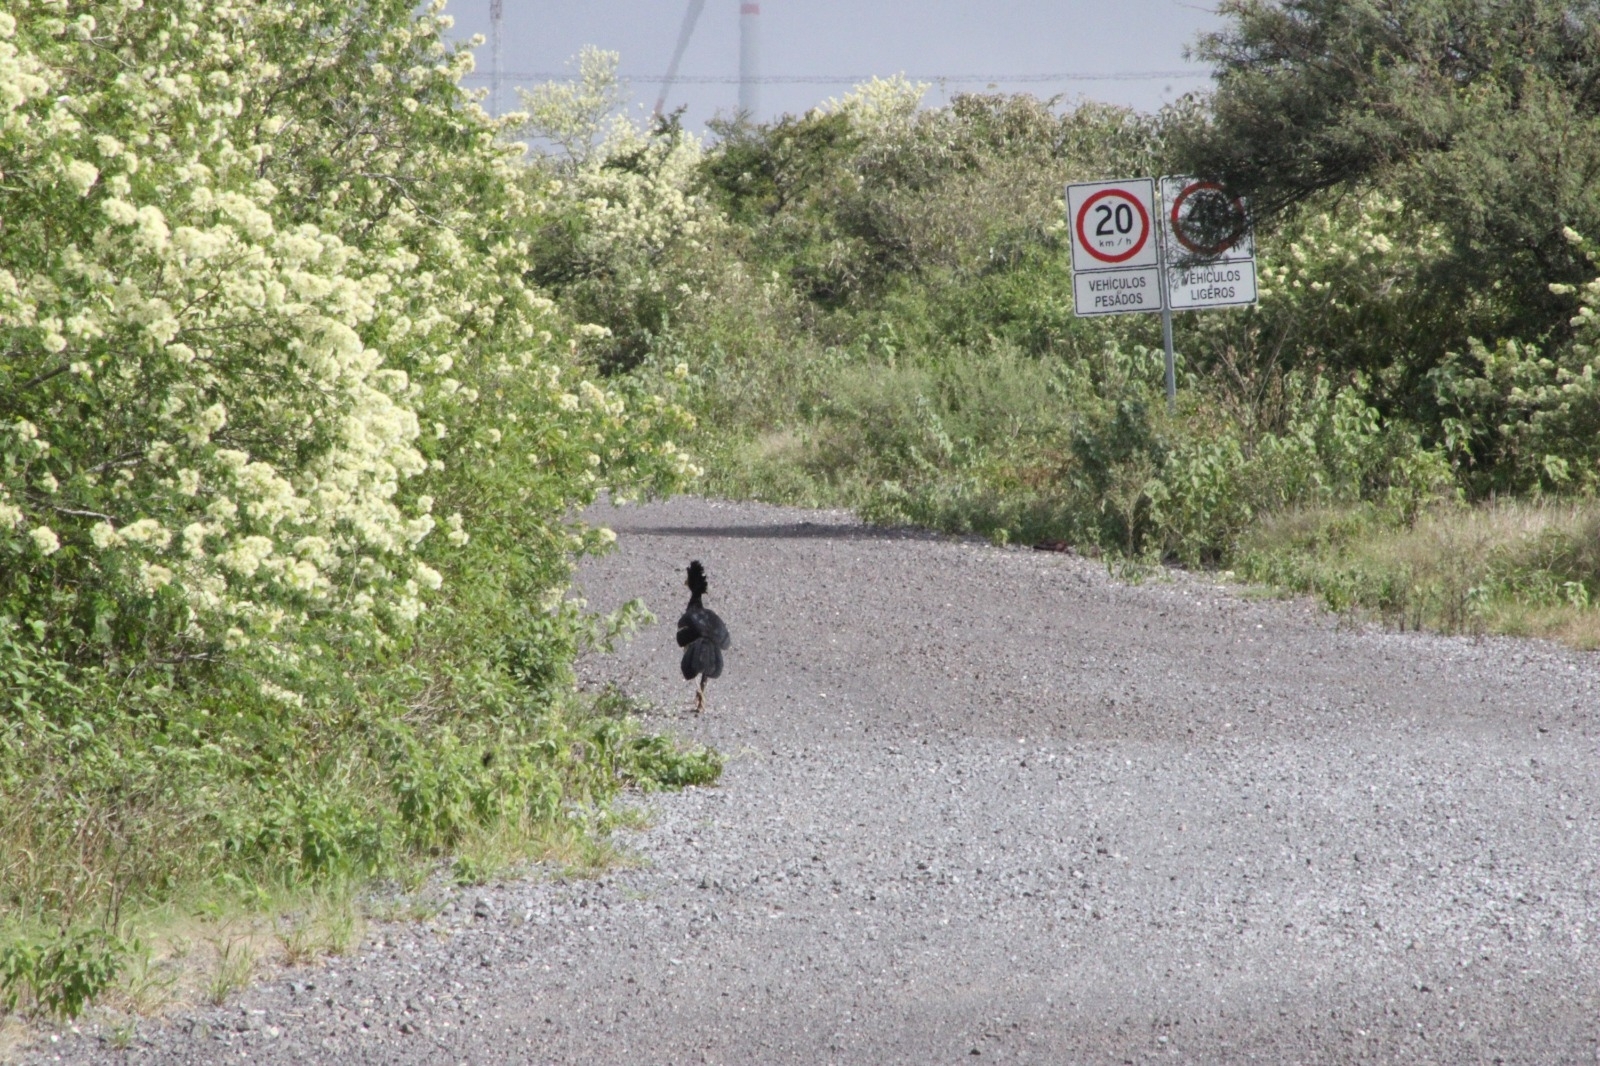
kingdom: Animalia
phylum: Chordata
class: Aves
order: Galliformes
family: Cracidae
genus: Crax
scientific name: Crax rubra
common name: Great curassow
